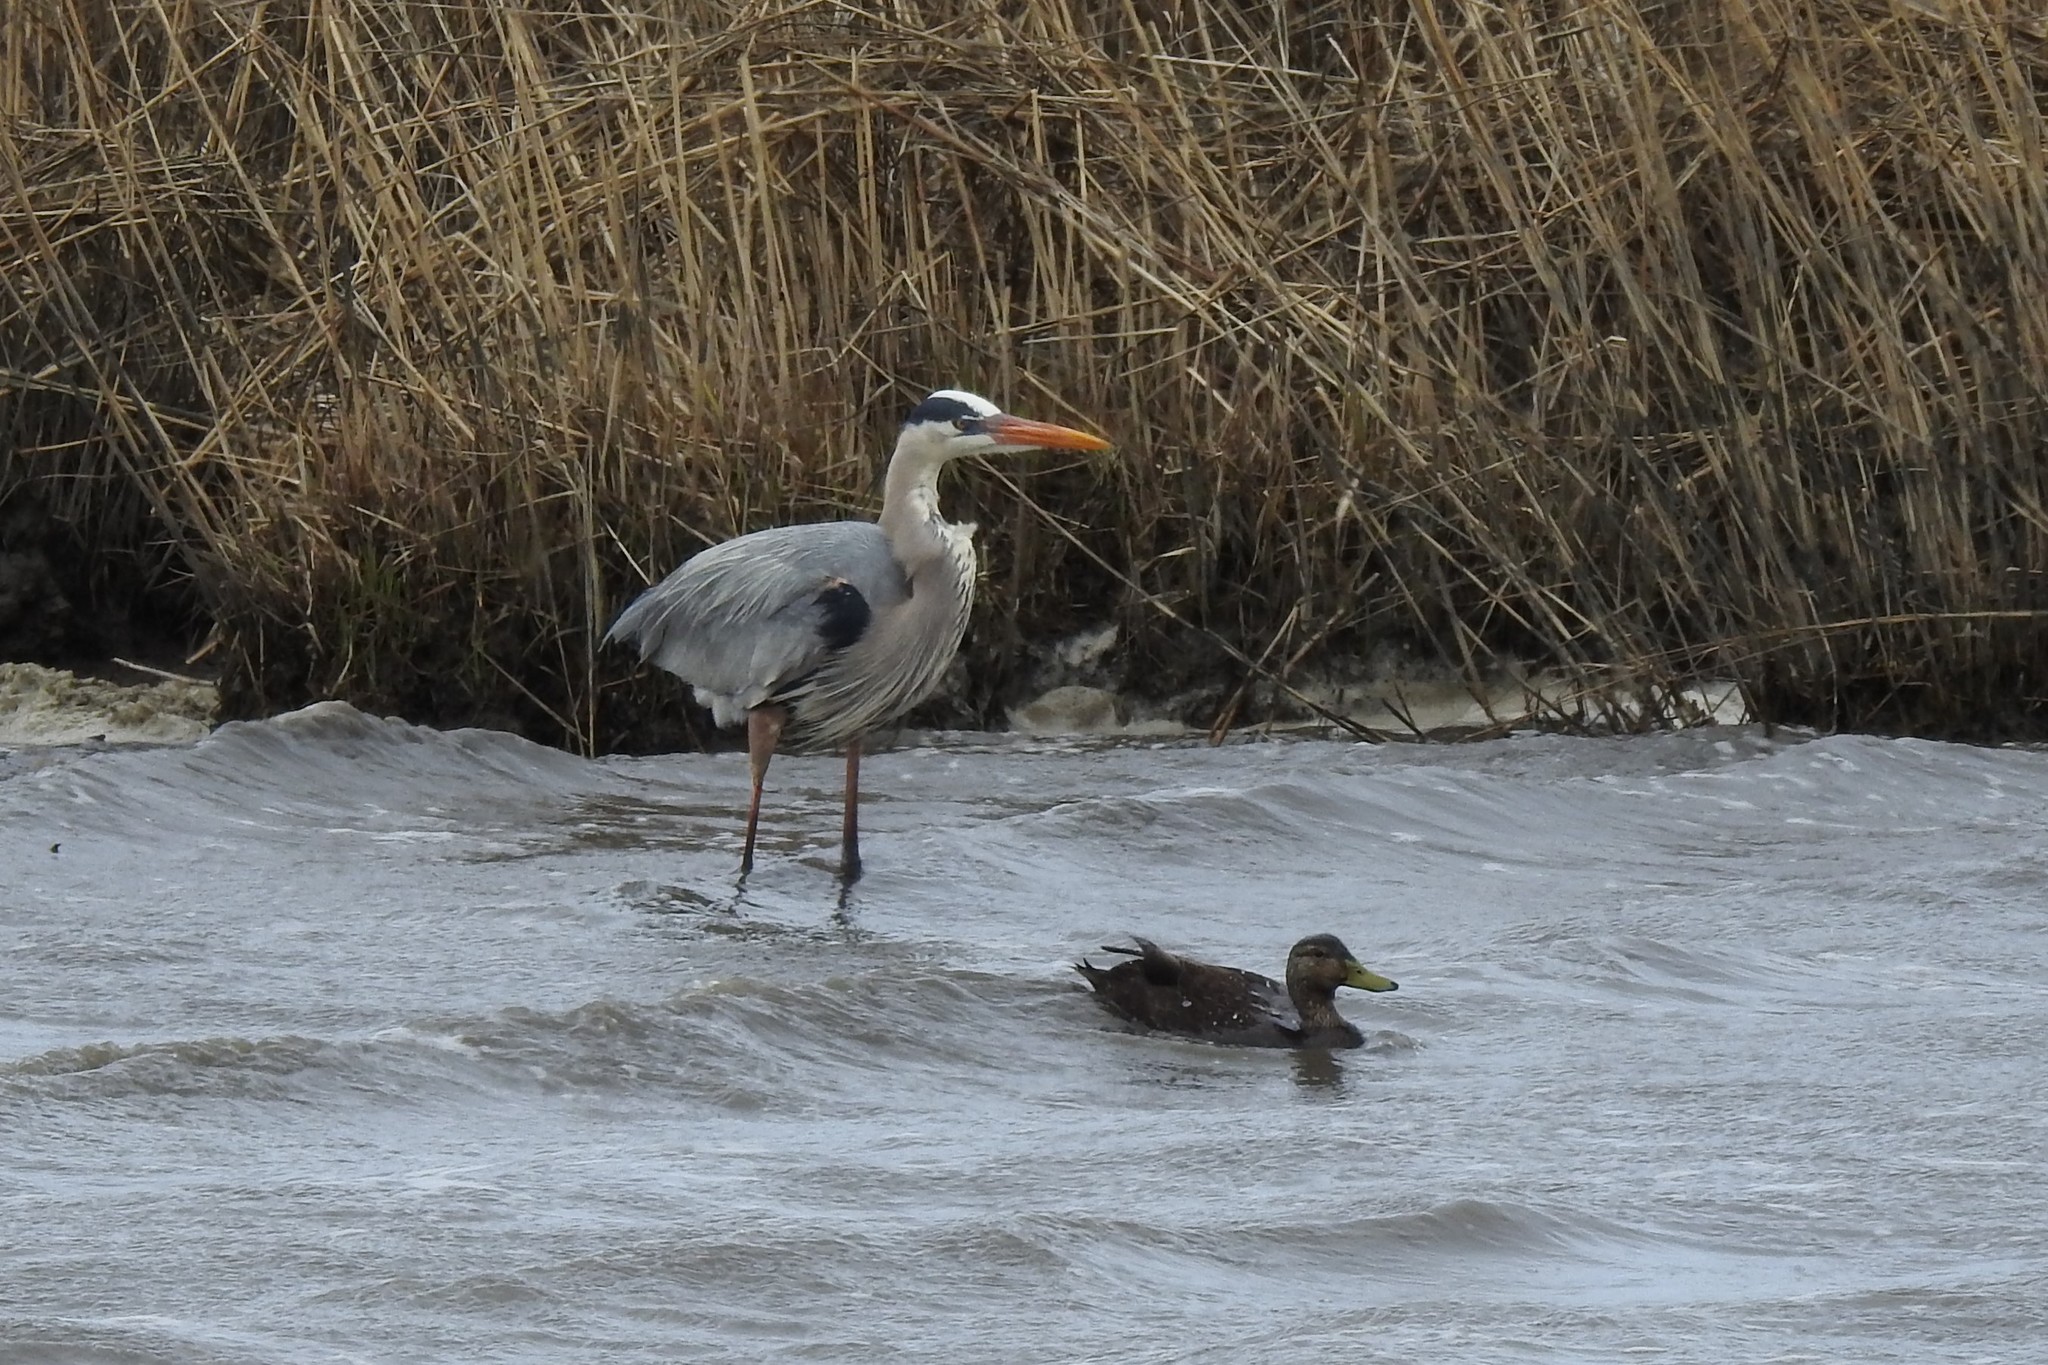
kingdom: Animalia
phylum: Chordata
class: Aves
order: Pelecaniformes
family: Ardeidae
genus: Ardea
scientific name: Ardea herodias
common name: Great blue heron
